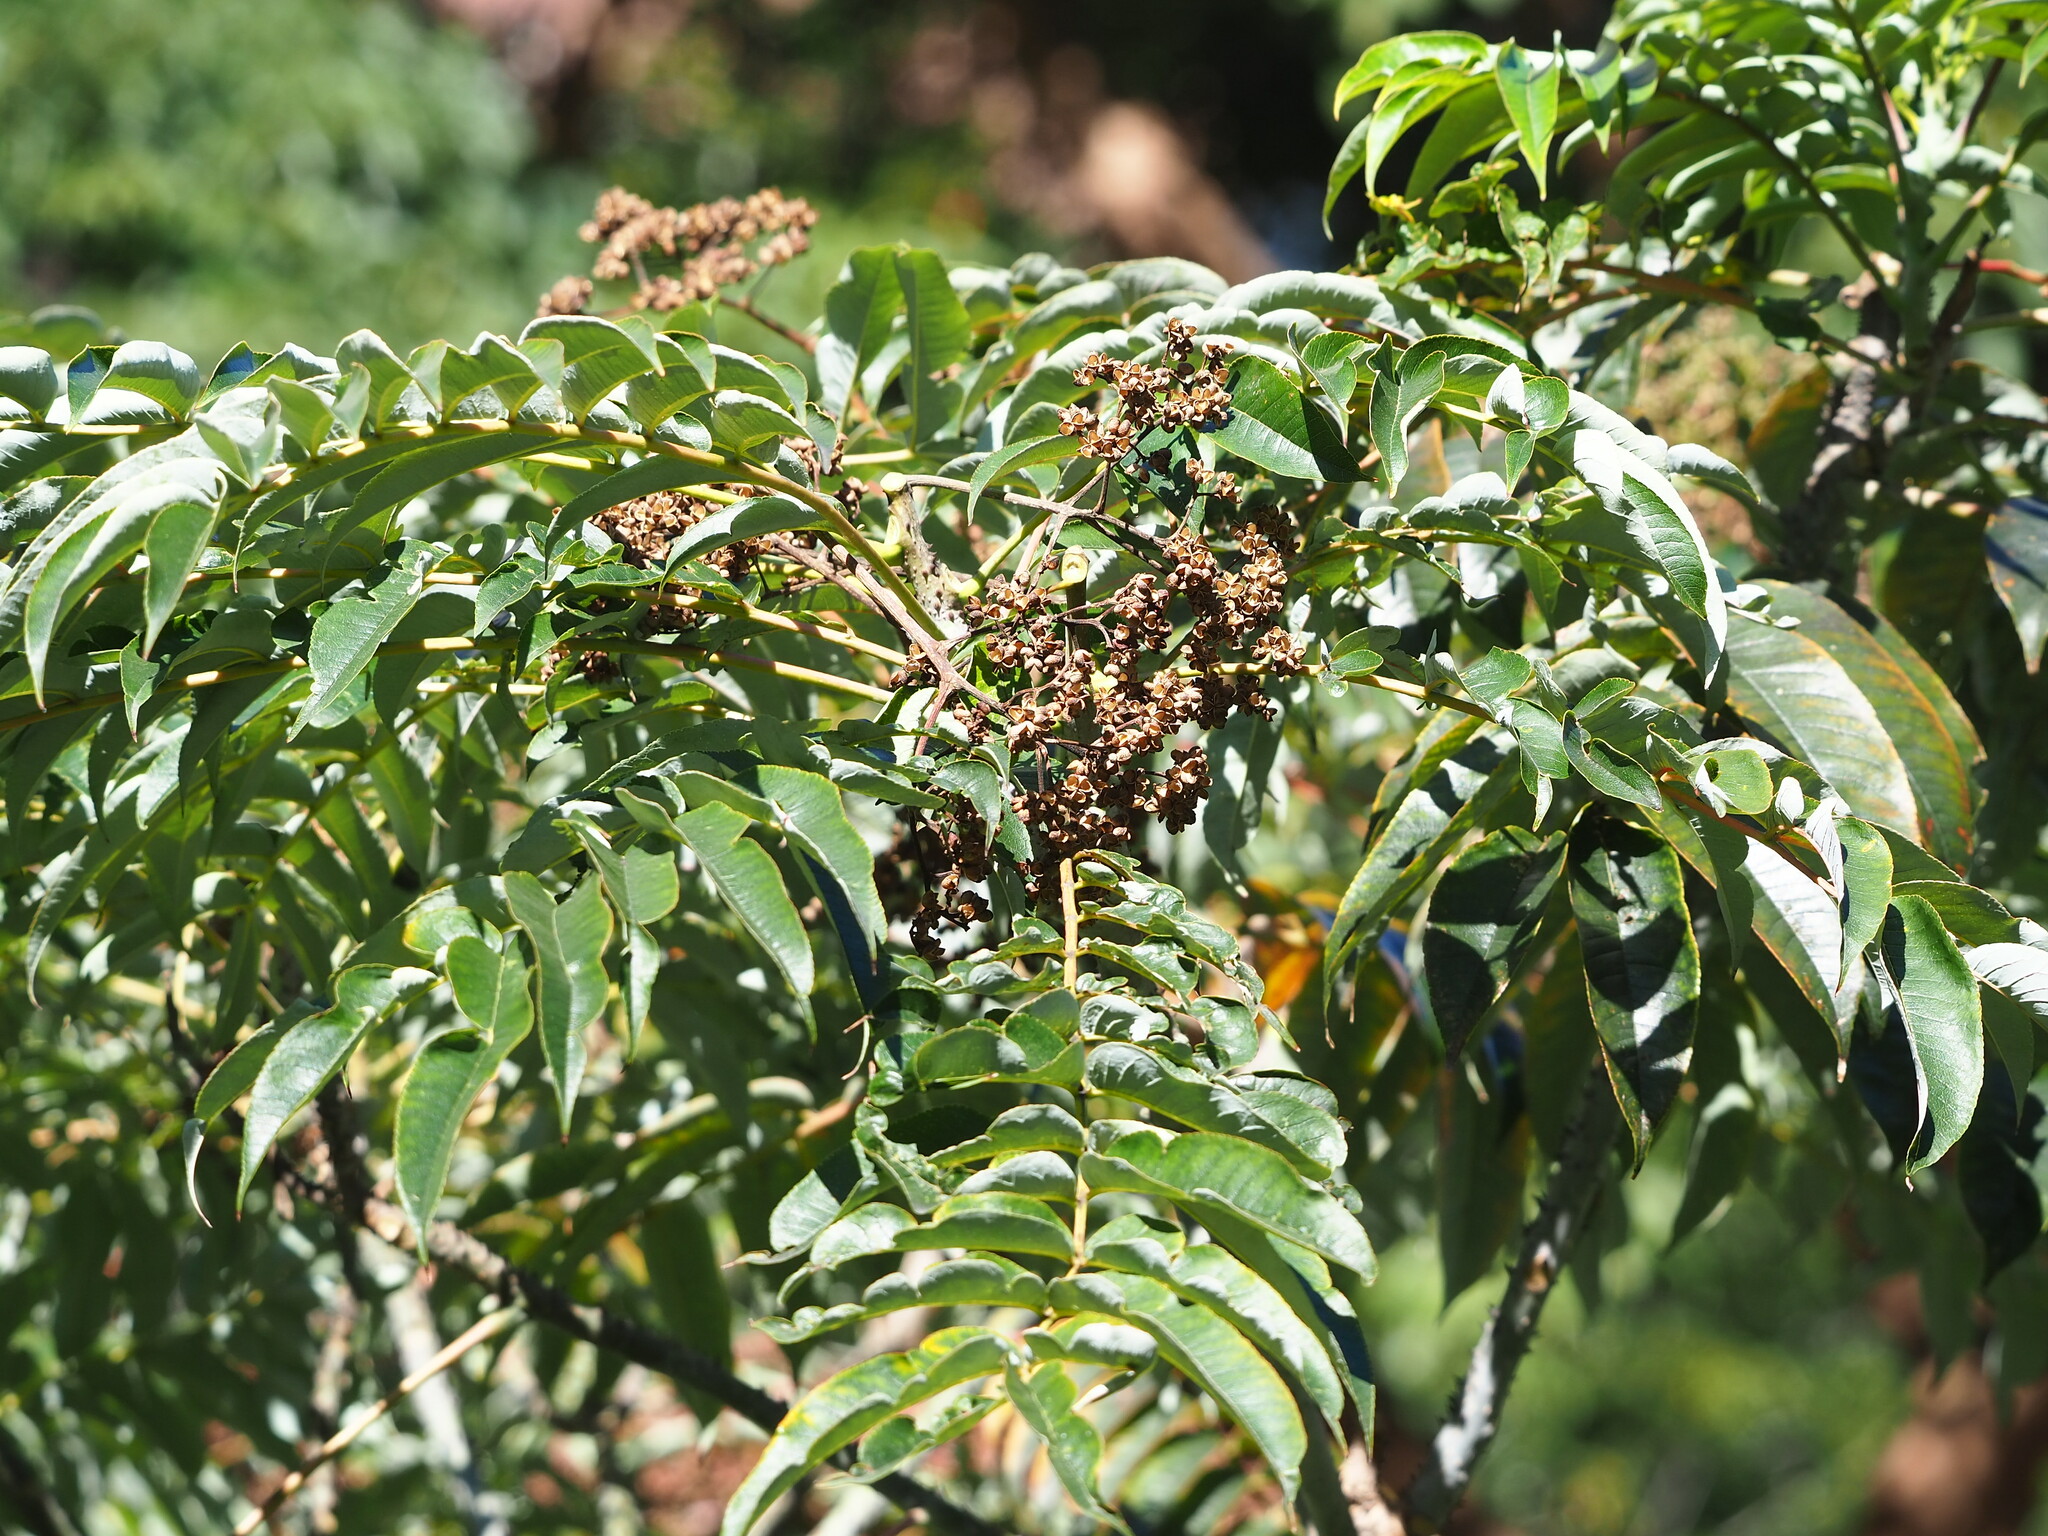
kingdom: Plantae
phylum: Tracheophyta
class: Magnoliopsida
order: Sapindales
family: Rutaceae
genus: Zanthoxylum
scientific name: Zanthoxylum ailanthoides
